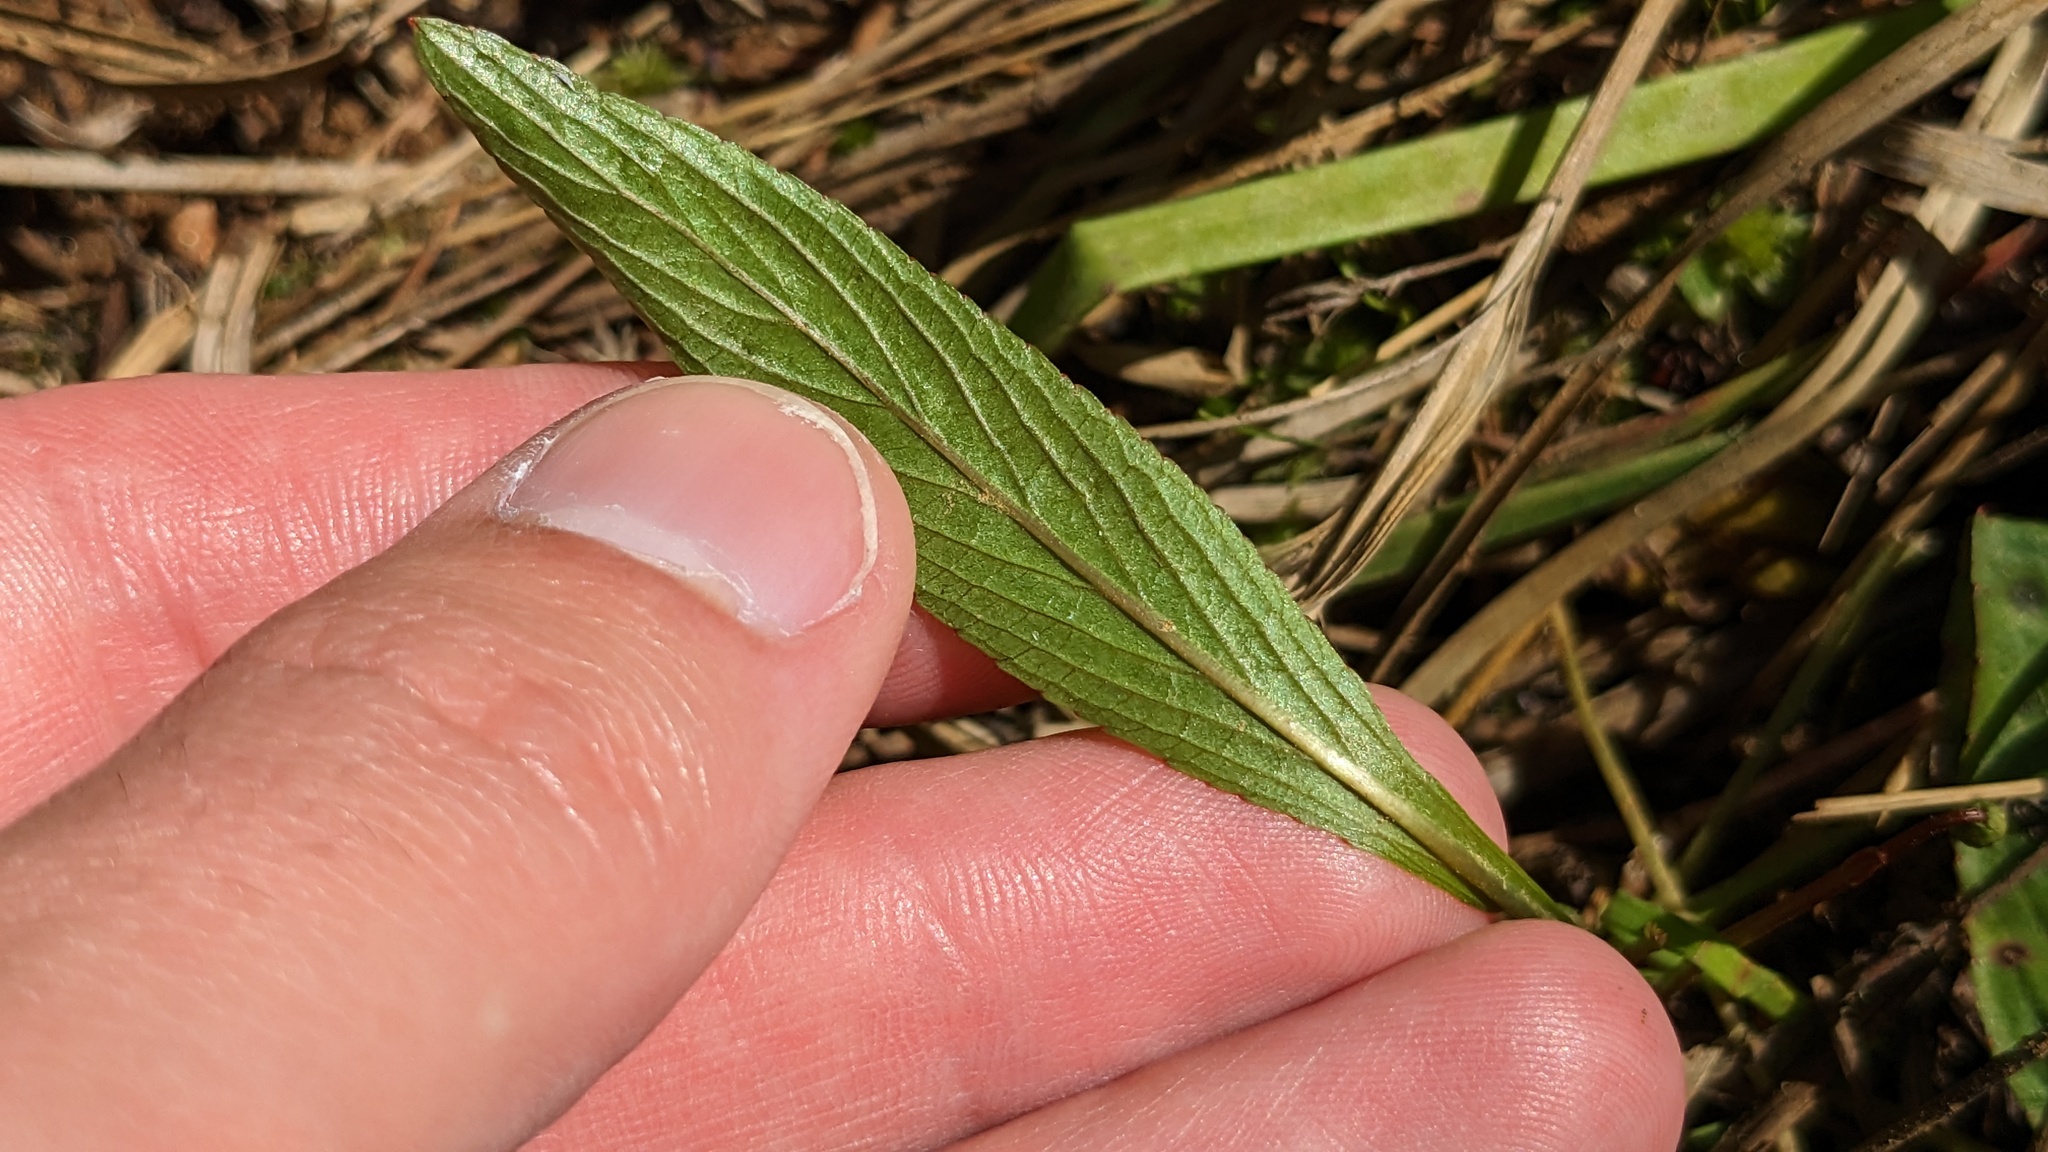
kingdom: Plantae
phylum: Tracheophyta
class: Magnoliopsida
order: Malpighiales
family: Violaceae
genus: Viola
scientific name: Viola lanceolata
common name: Bog white violet
